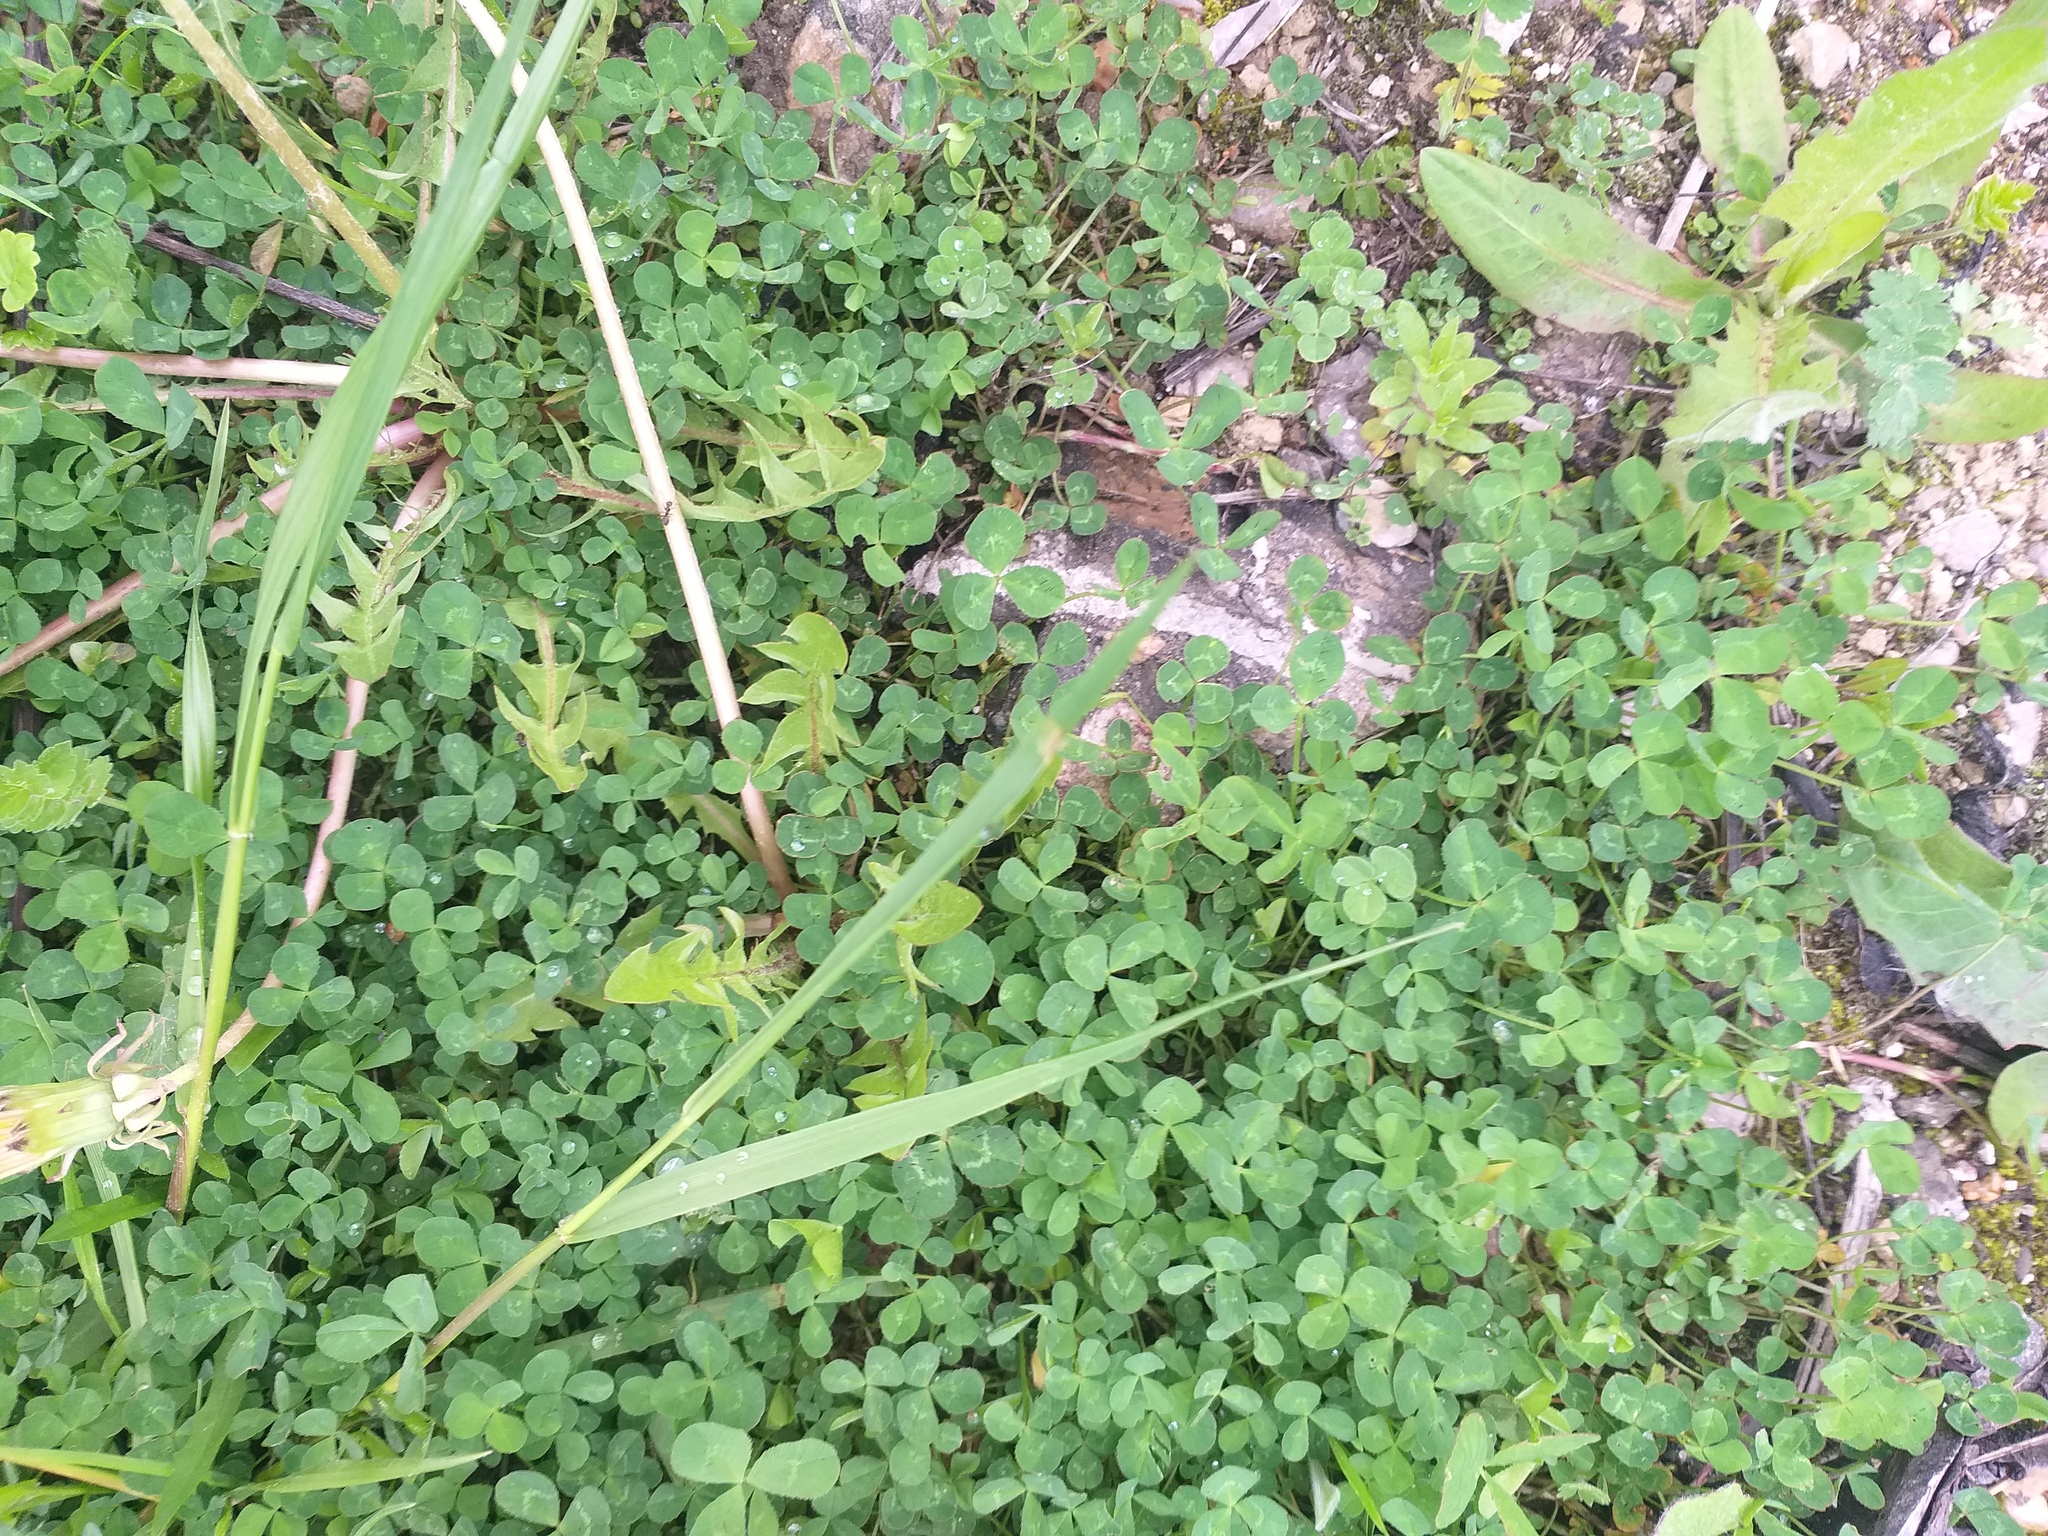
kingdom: Plantae
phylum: Tracheophyta
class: Magnoliopsida
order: Fabales
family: Fabaceae
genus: Trifolium
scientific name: Trifolium repens
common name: White clover
